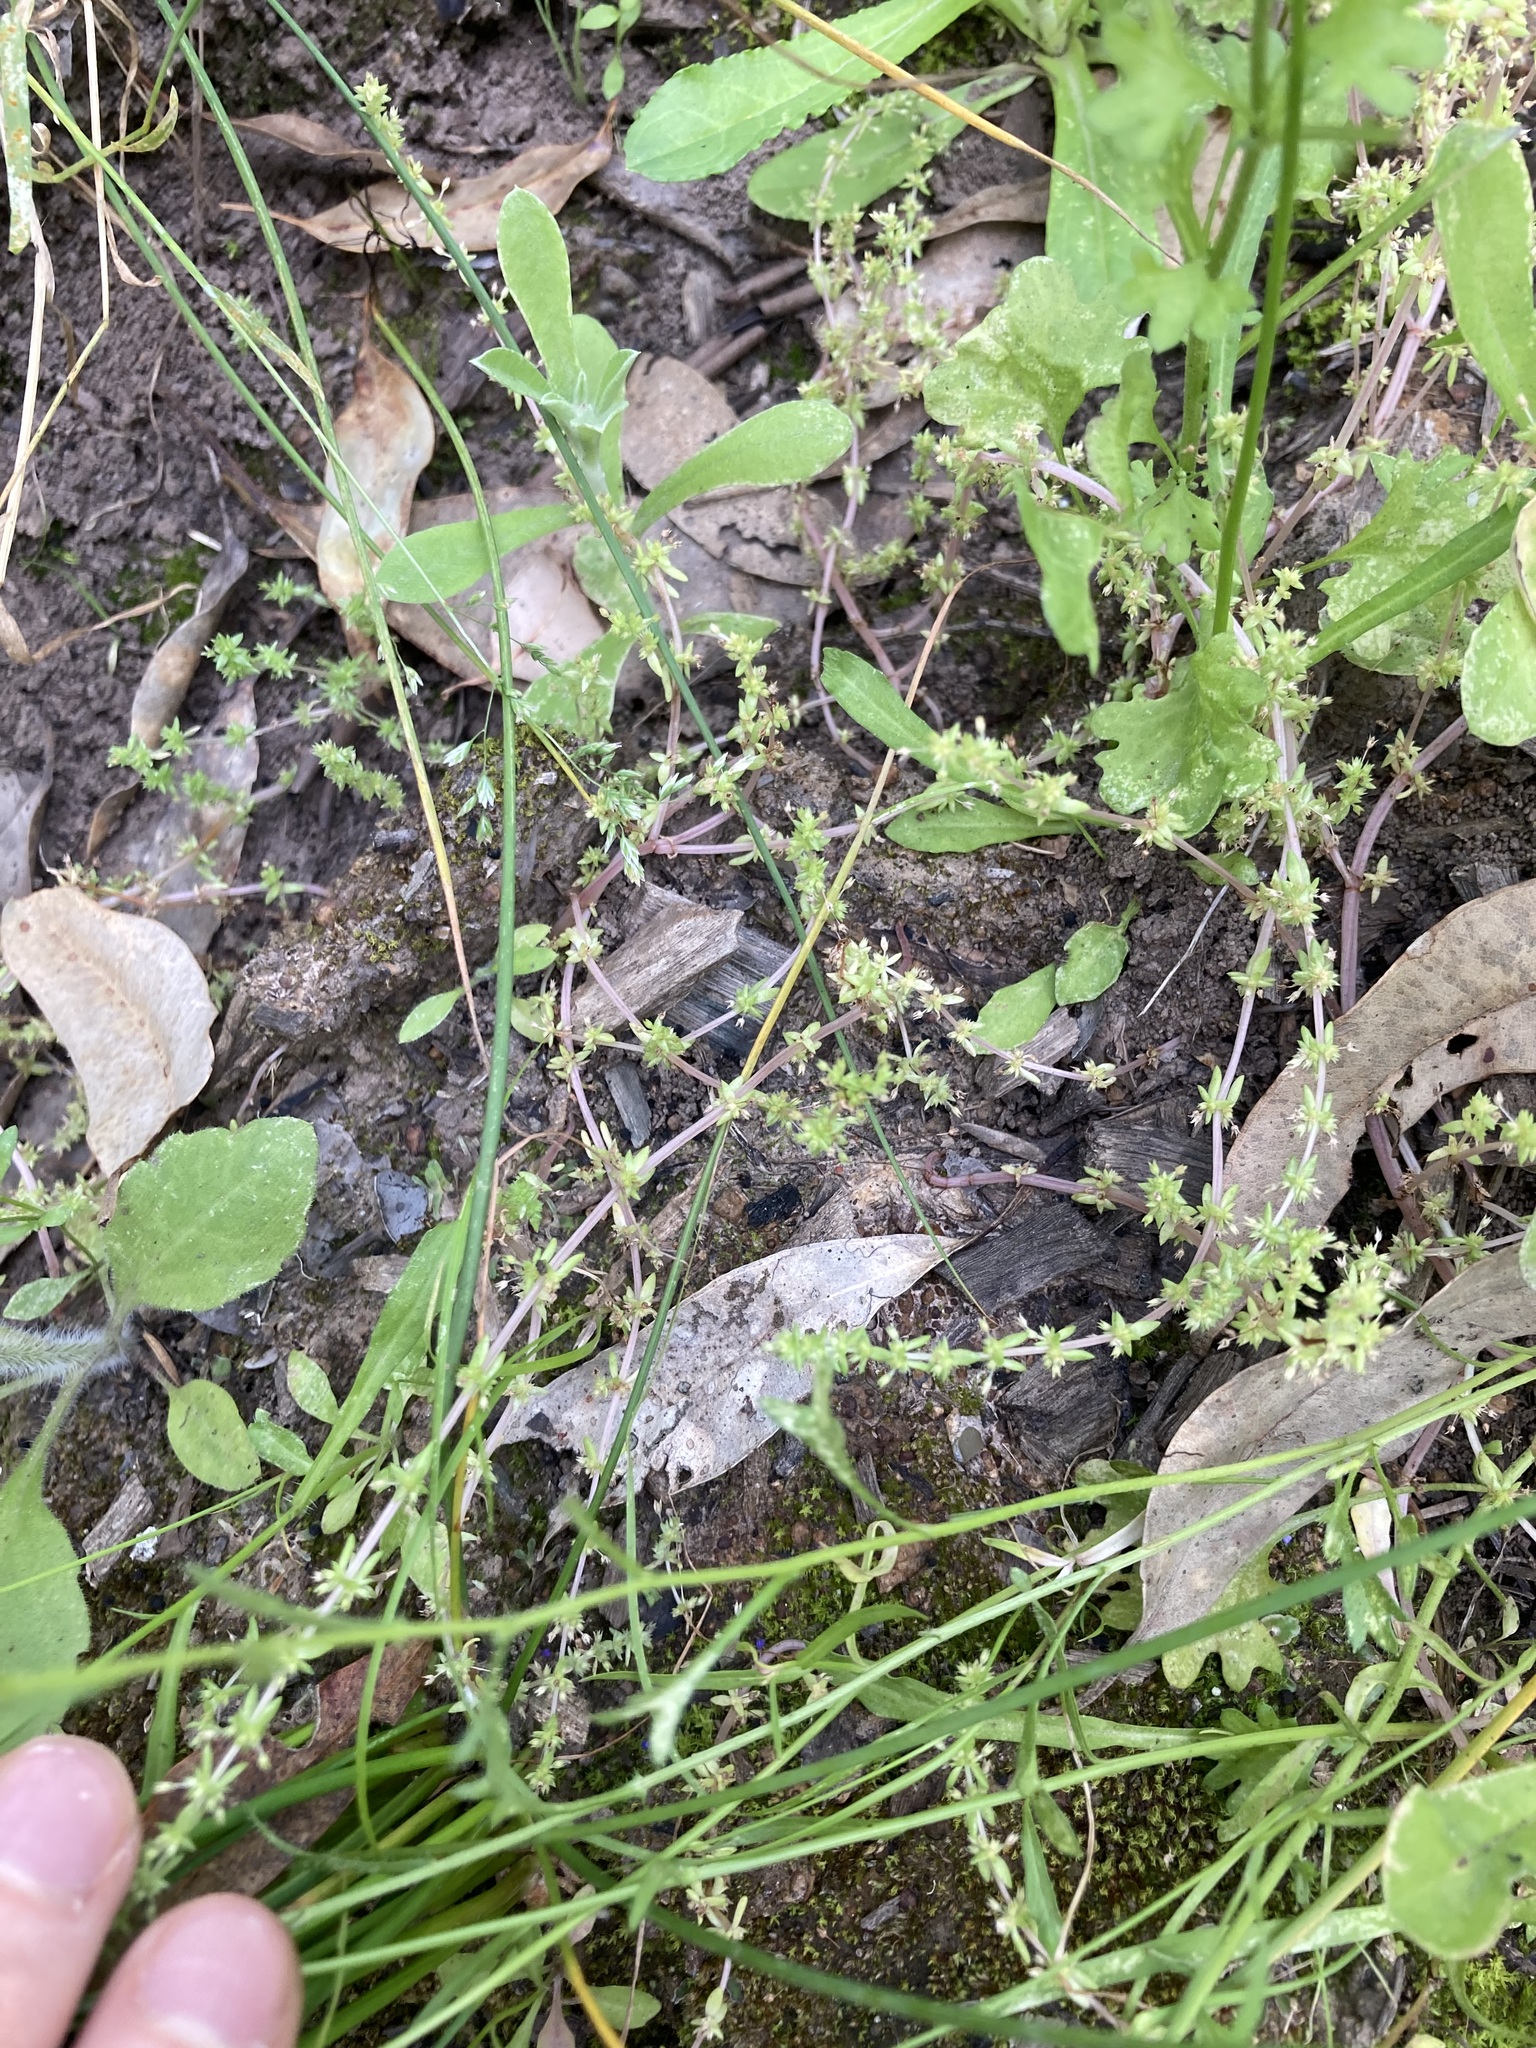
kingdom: Plantae
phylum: Tracheophyta
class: Magnoliopsida
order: Saxifragales
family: Crassulaceae
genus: Crassula
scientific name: Crassula sieberiana
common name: Siberian pygmyweed
